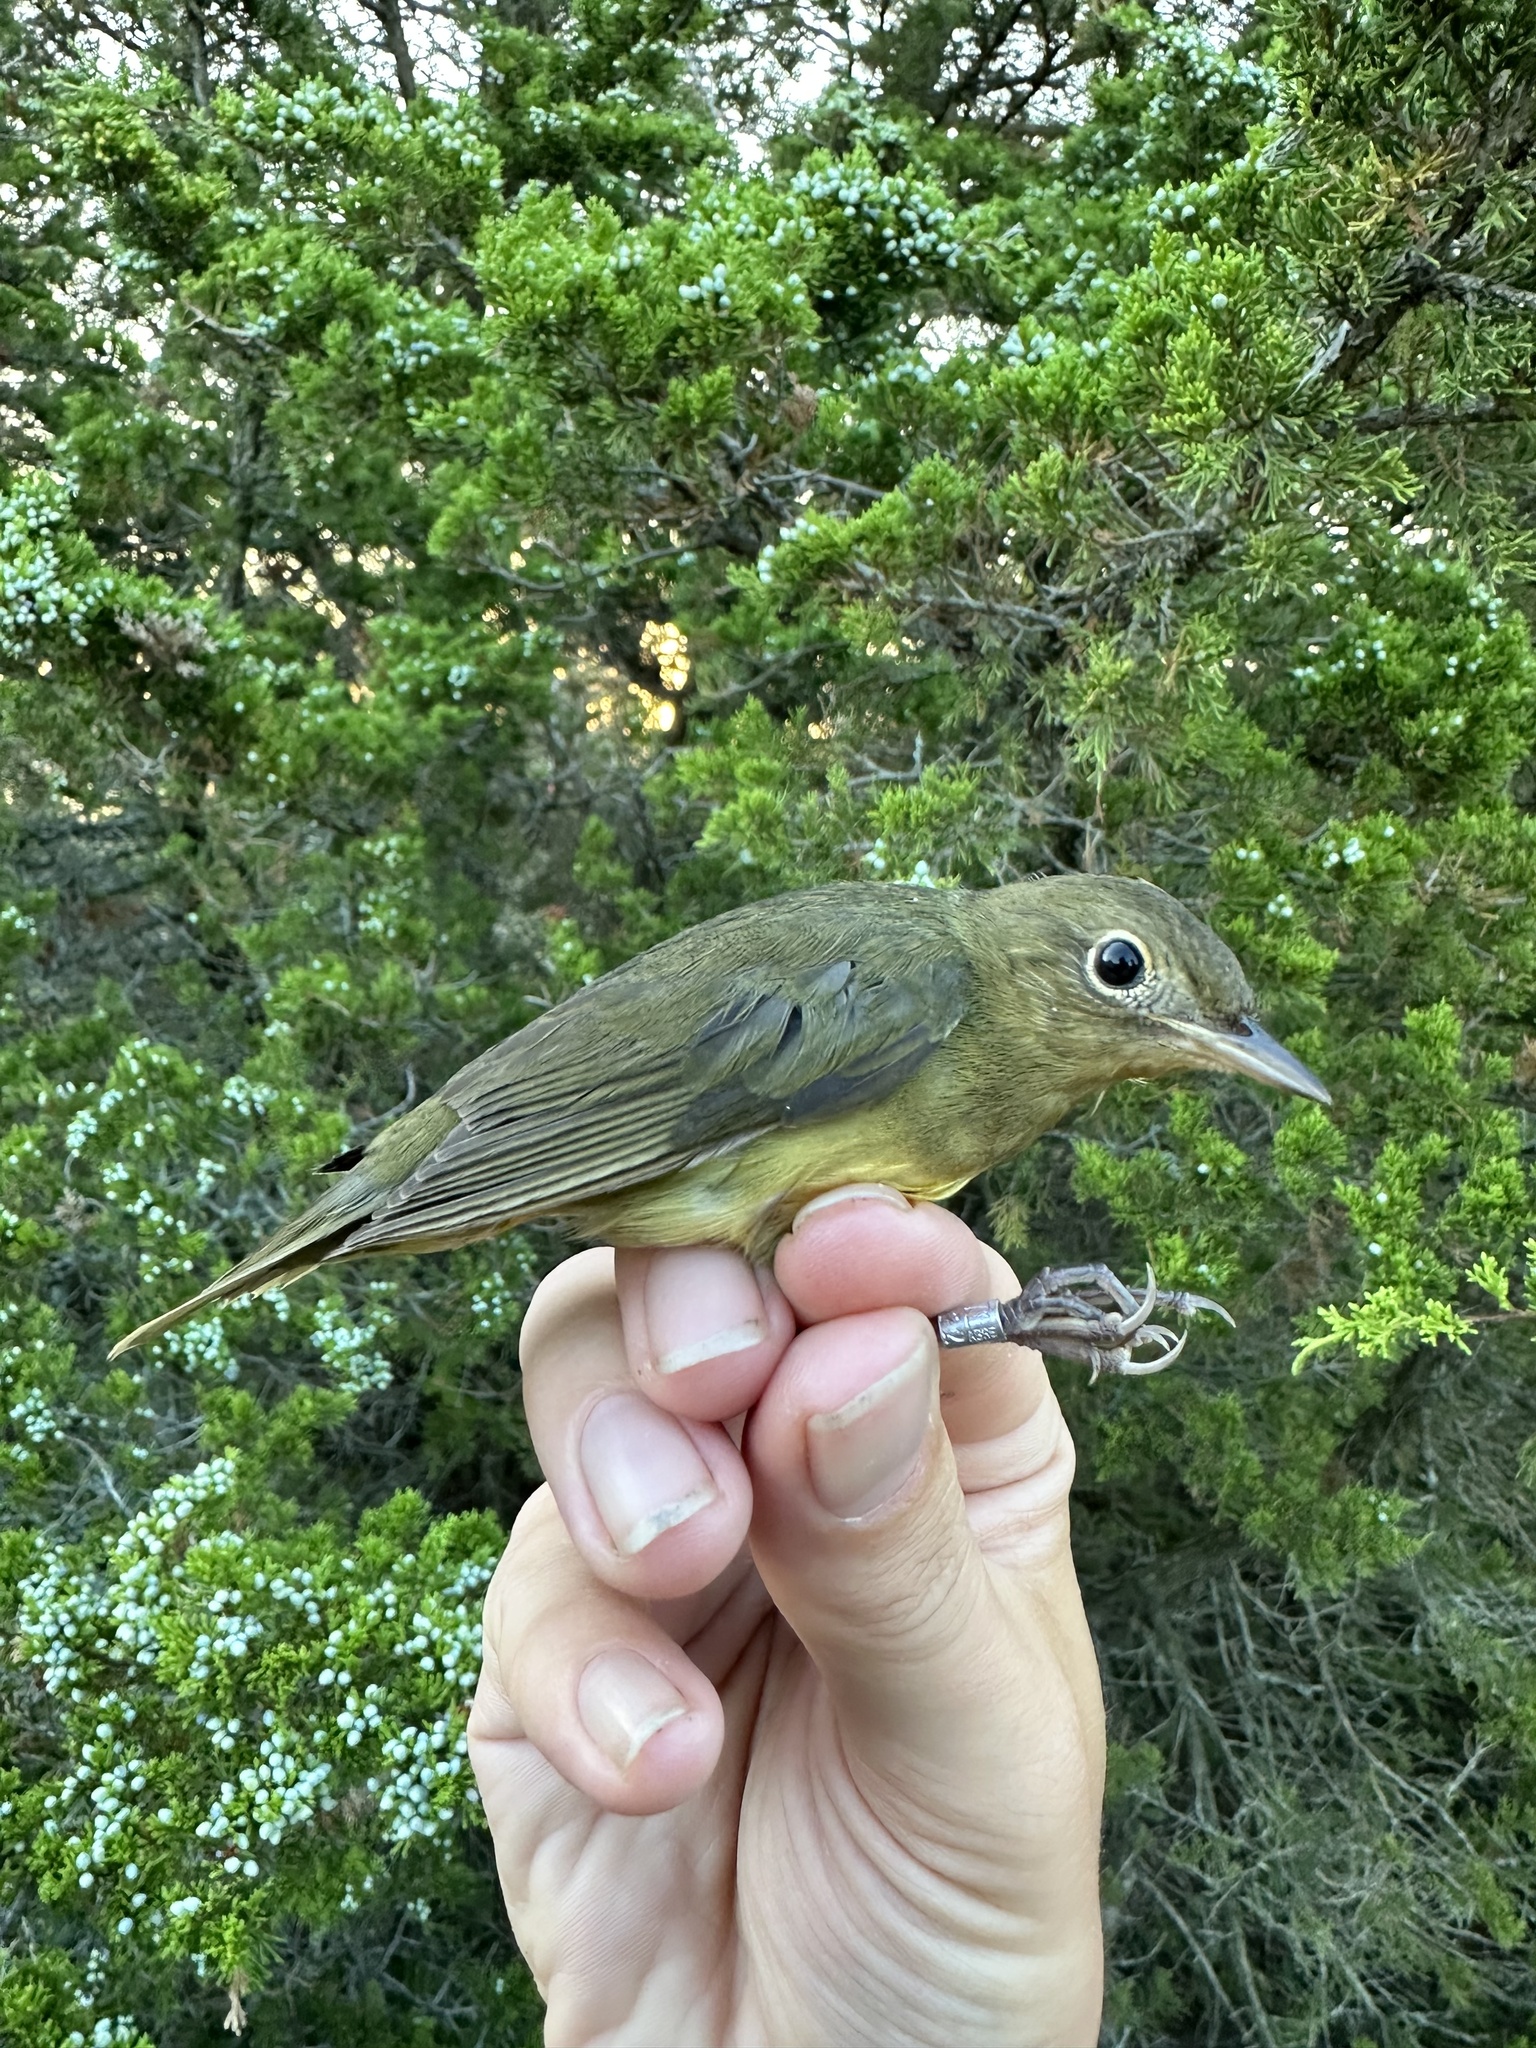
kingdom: Animalia
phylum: Chordata
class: Aves
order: Passeriformes
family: Parulidae
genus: Oporornis
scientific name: Oporornis agilis
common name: Connecticut warbler
